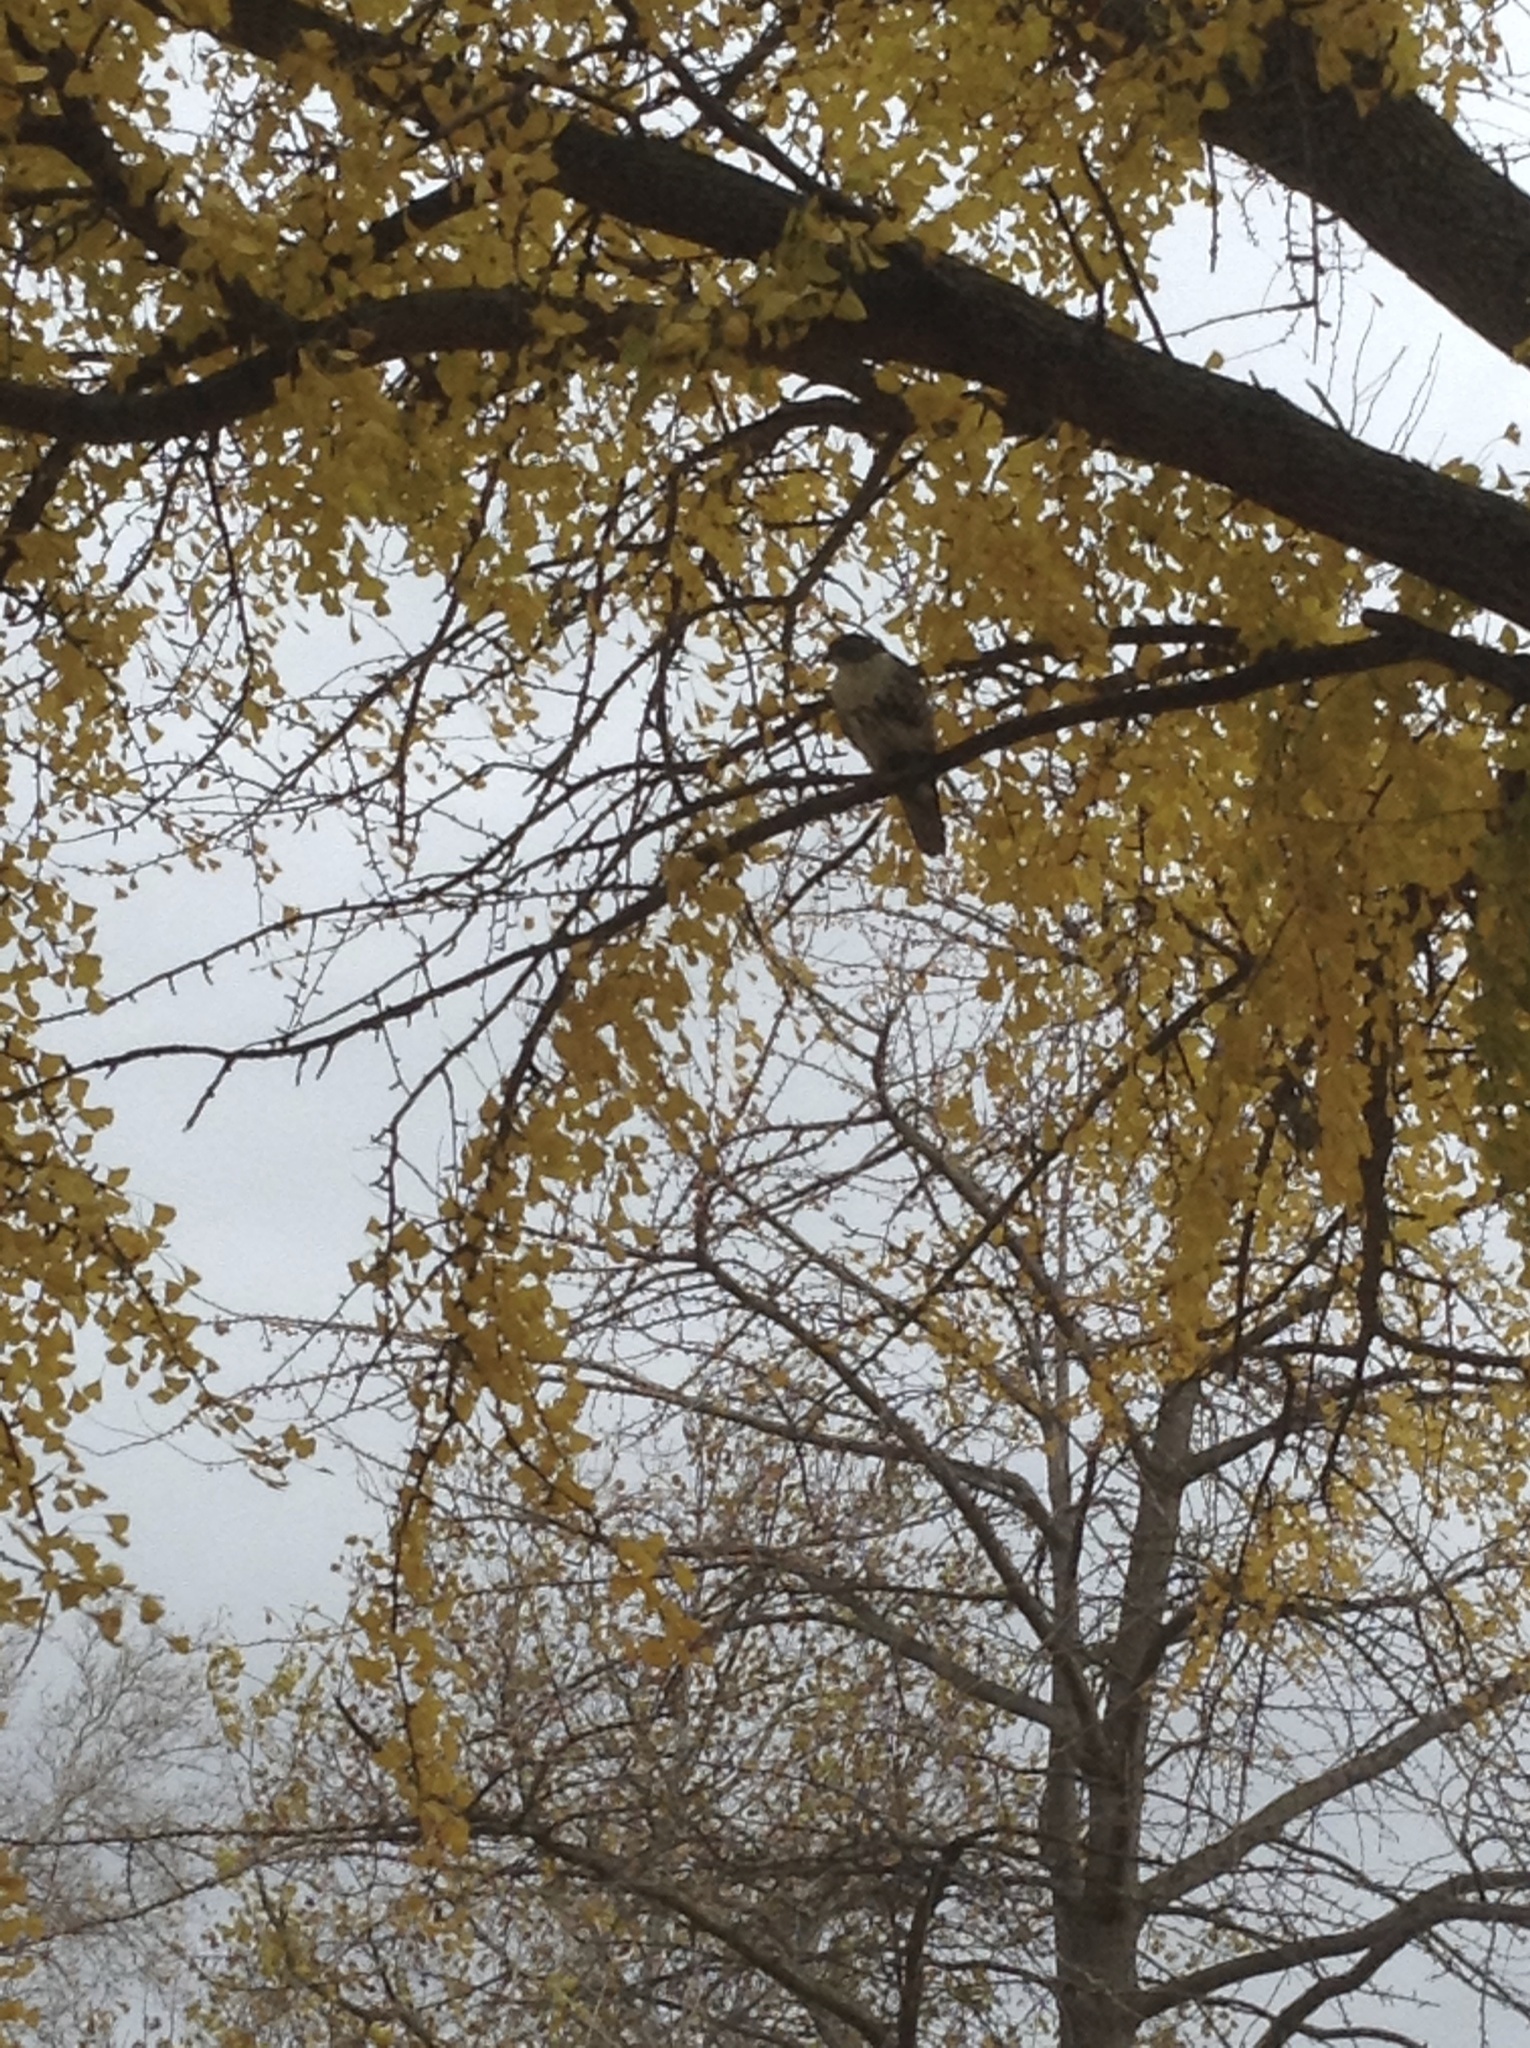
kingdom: Animalia
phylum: Chordata
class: Aves
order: Accipitriformes
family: Accipitridae
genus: Buteo
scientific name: Buteo jamaicensis
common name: Red-tailed hawk
